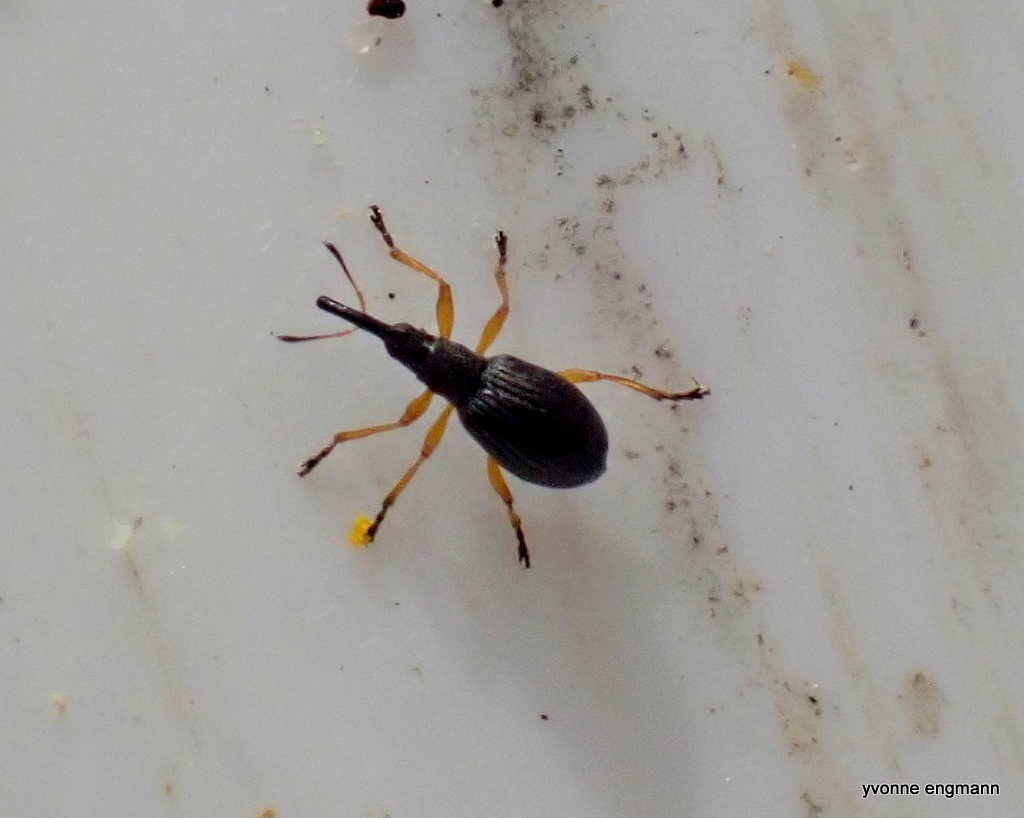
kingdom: Animalia
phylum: Arthropoda
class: Insecta
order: Coleoptera
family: Apionidae
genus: Protapion
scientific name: Protapion fulvipes
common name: White clover seed weevil
